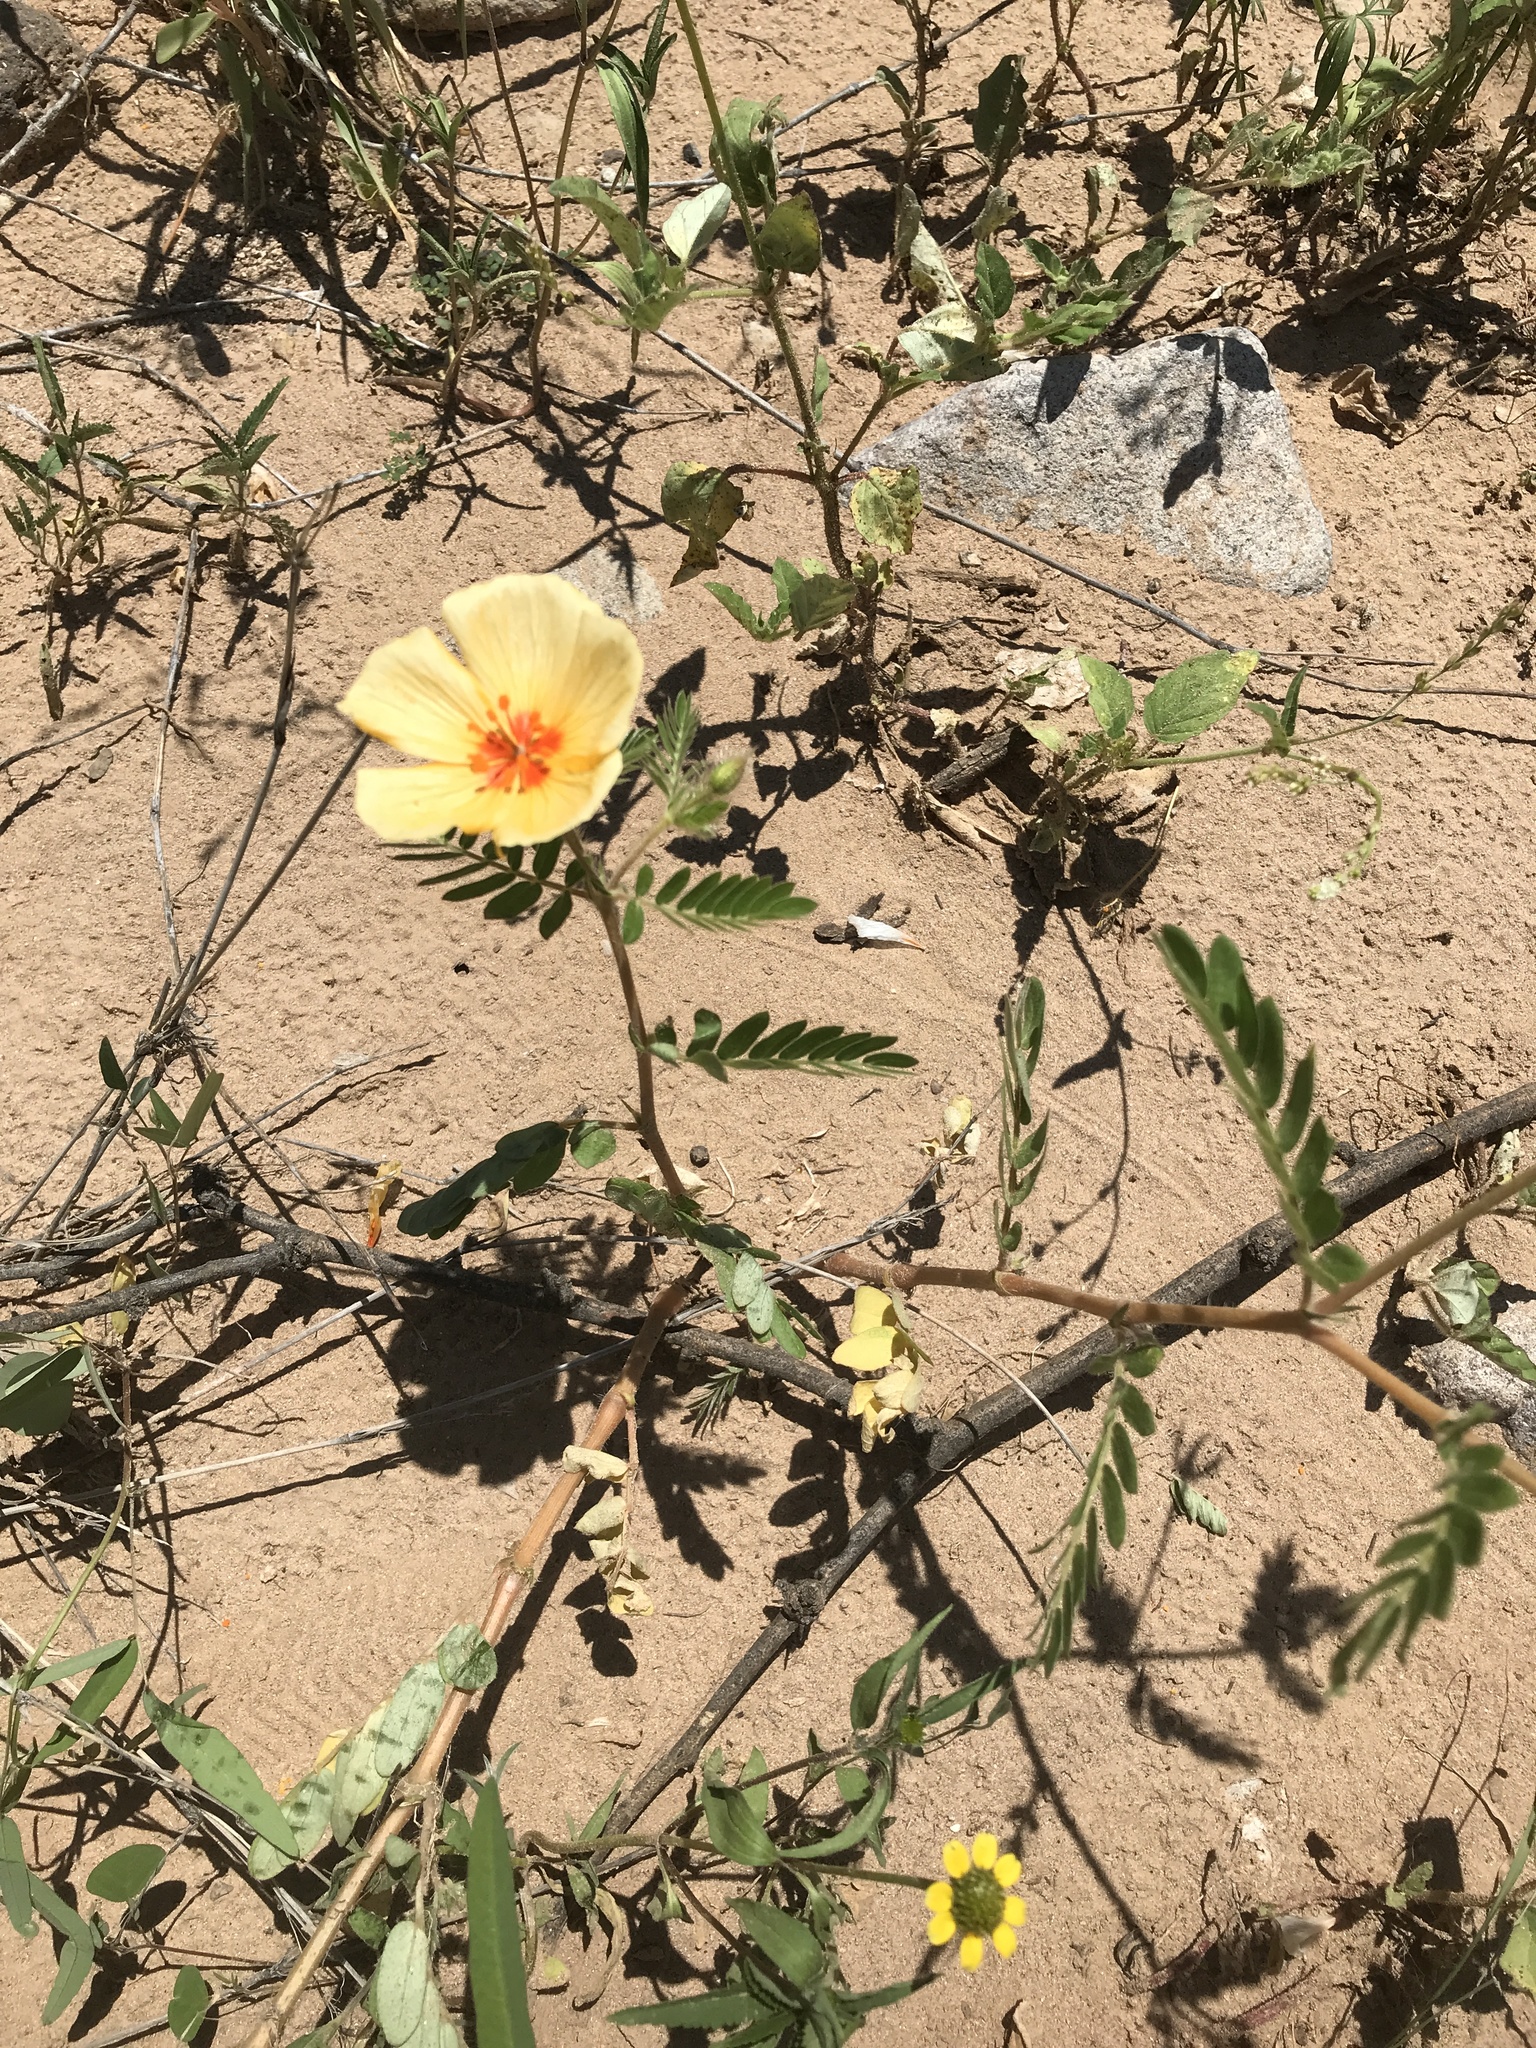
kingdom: Plantae
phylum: Tracheophyta
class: Magnoliopsida
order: Zygophyllales
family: Zygophyllaceae
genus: Kallstroemia
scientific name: Kallstroemia grandiflora
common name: Arizona-poppy
